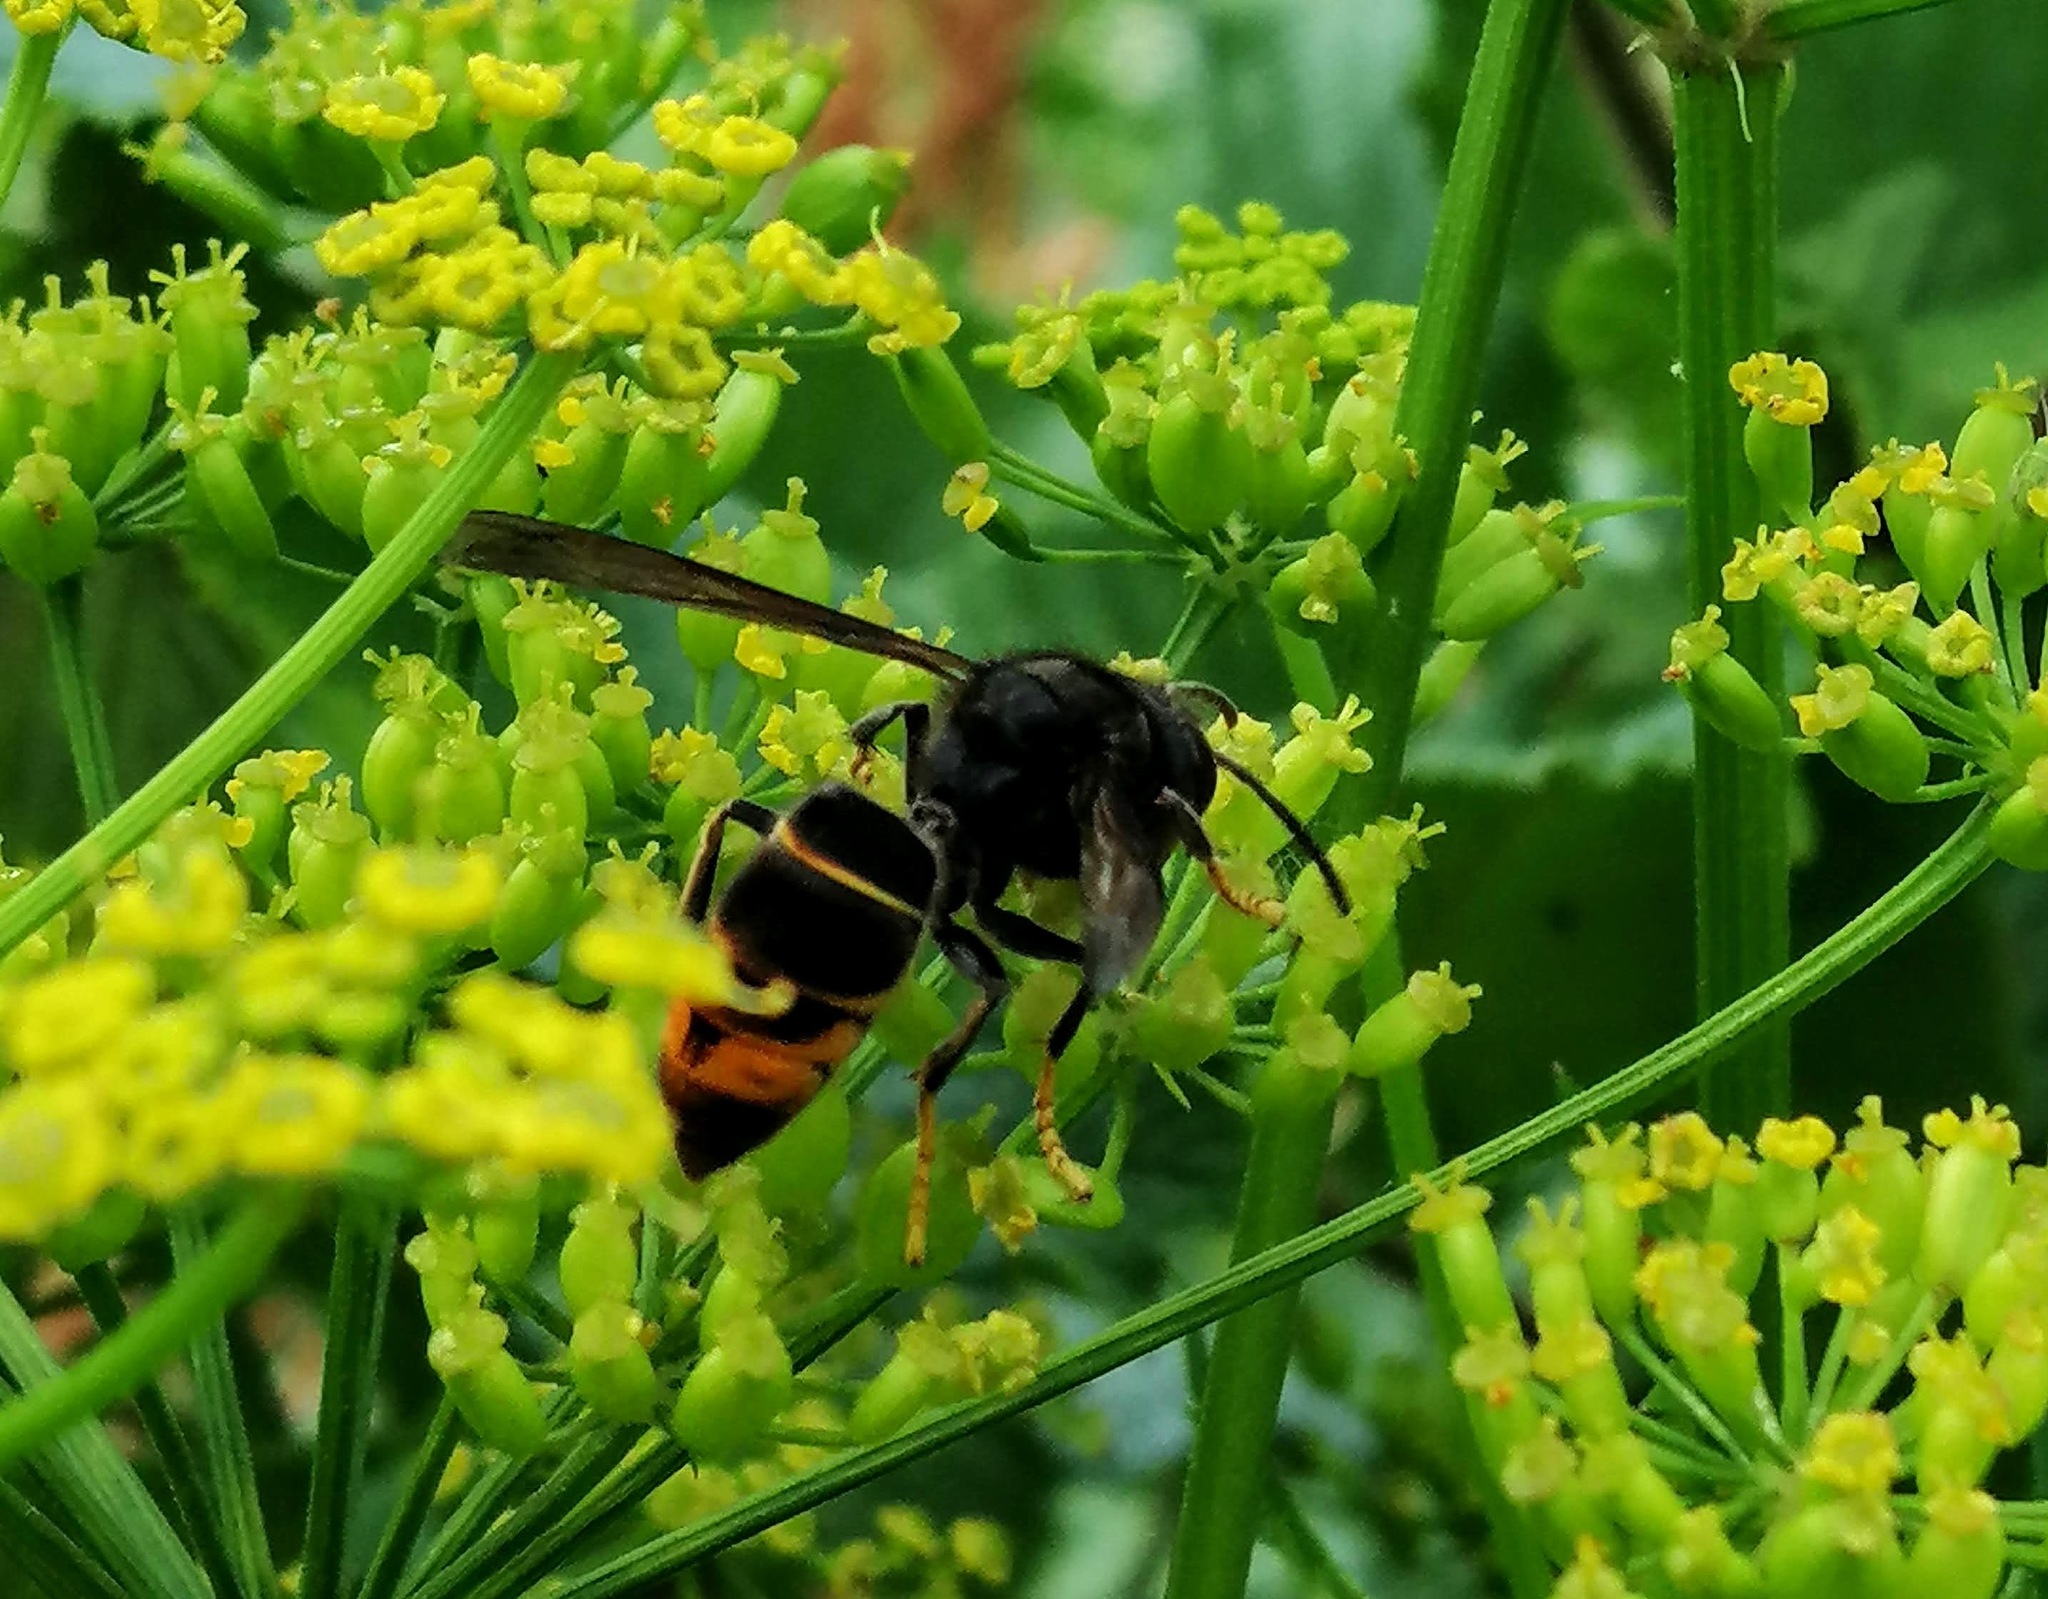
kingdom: Animalia
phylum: Arthropoda
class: Insecta
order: Hymenoptera
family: Vespidae
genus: Vespa
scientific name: Vespa velutina
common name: Asian hornet
